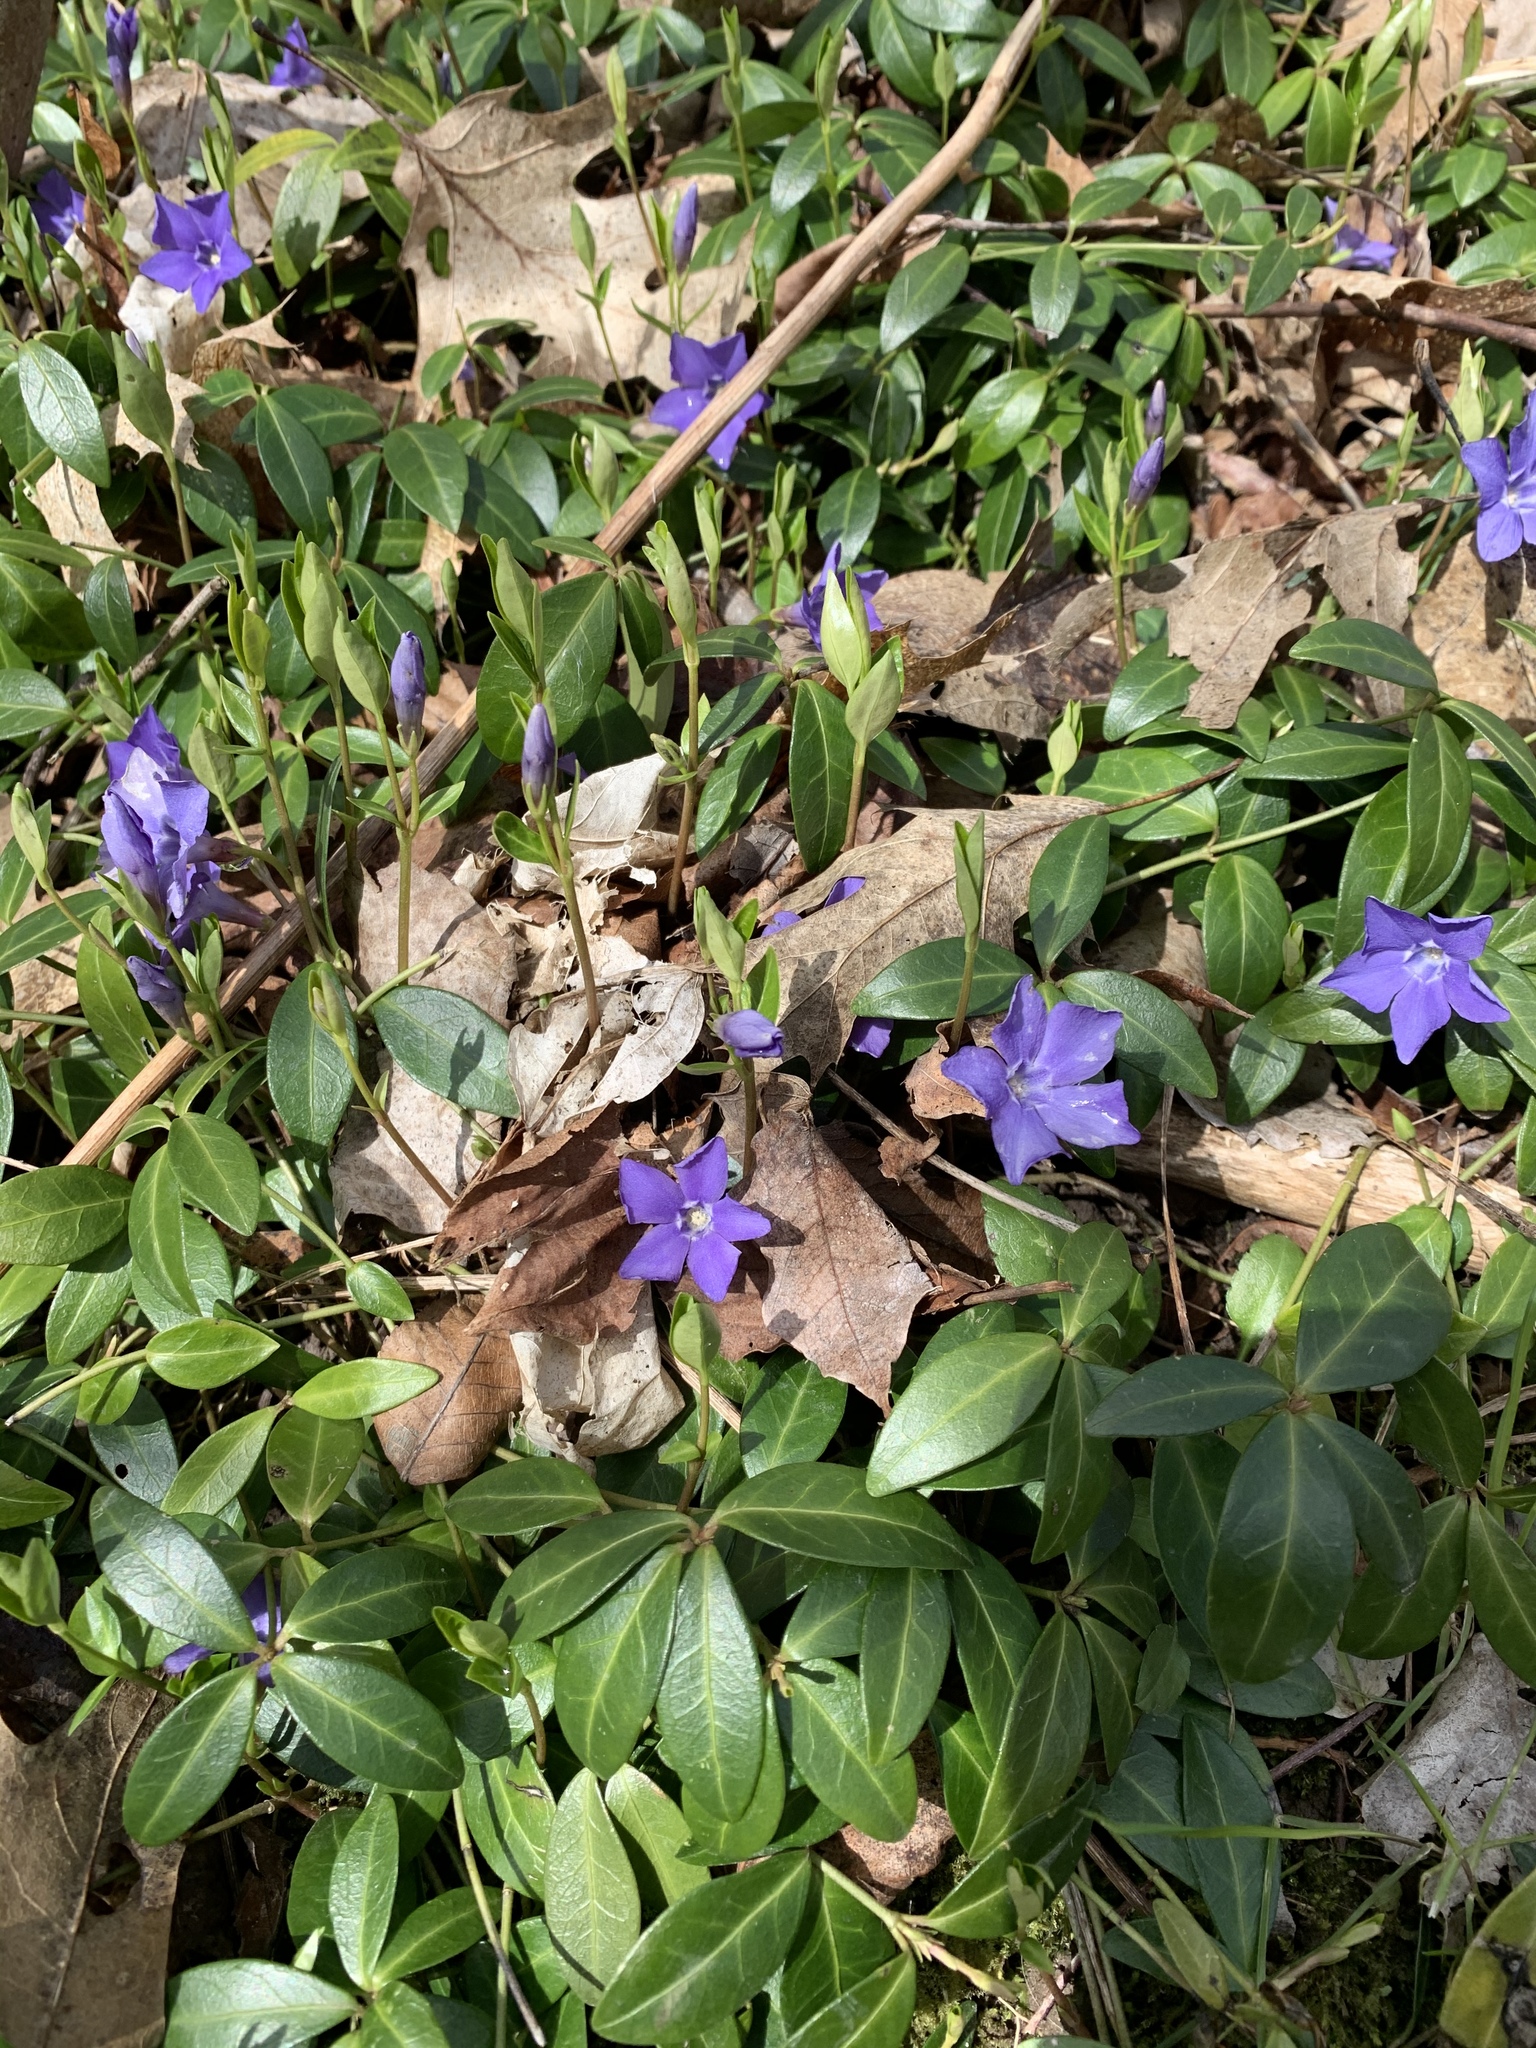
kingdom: Plantae
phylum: Tracheophyta
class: Magnoliopsida
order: Gentianales
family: Apocynaceae
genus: Vinca
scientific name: Vinca minor
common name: Lesser periwinkle
